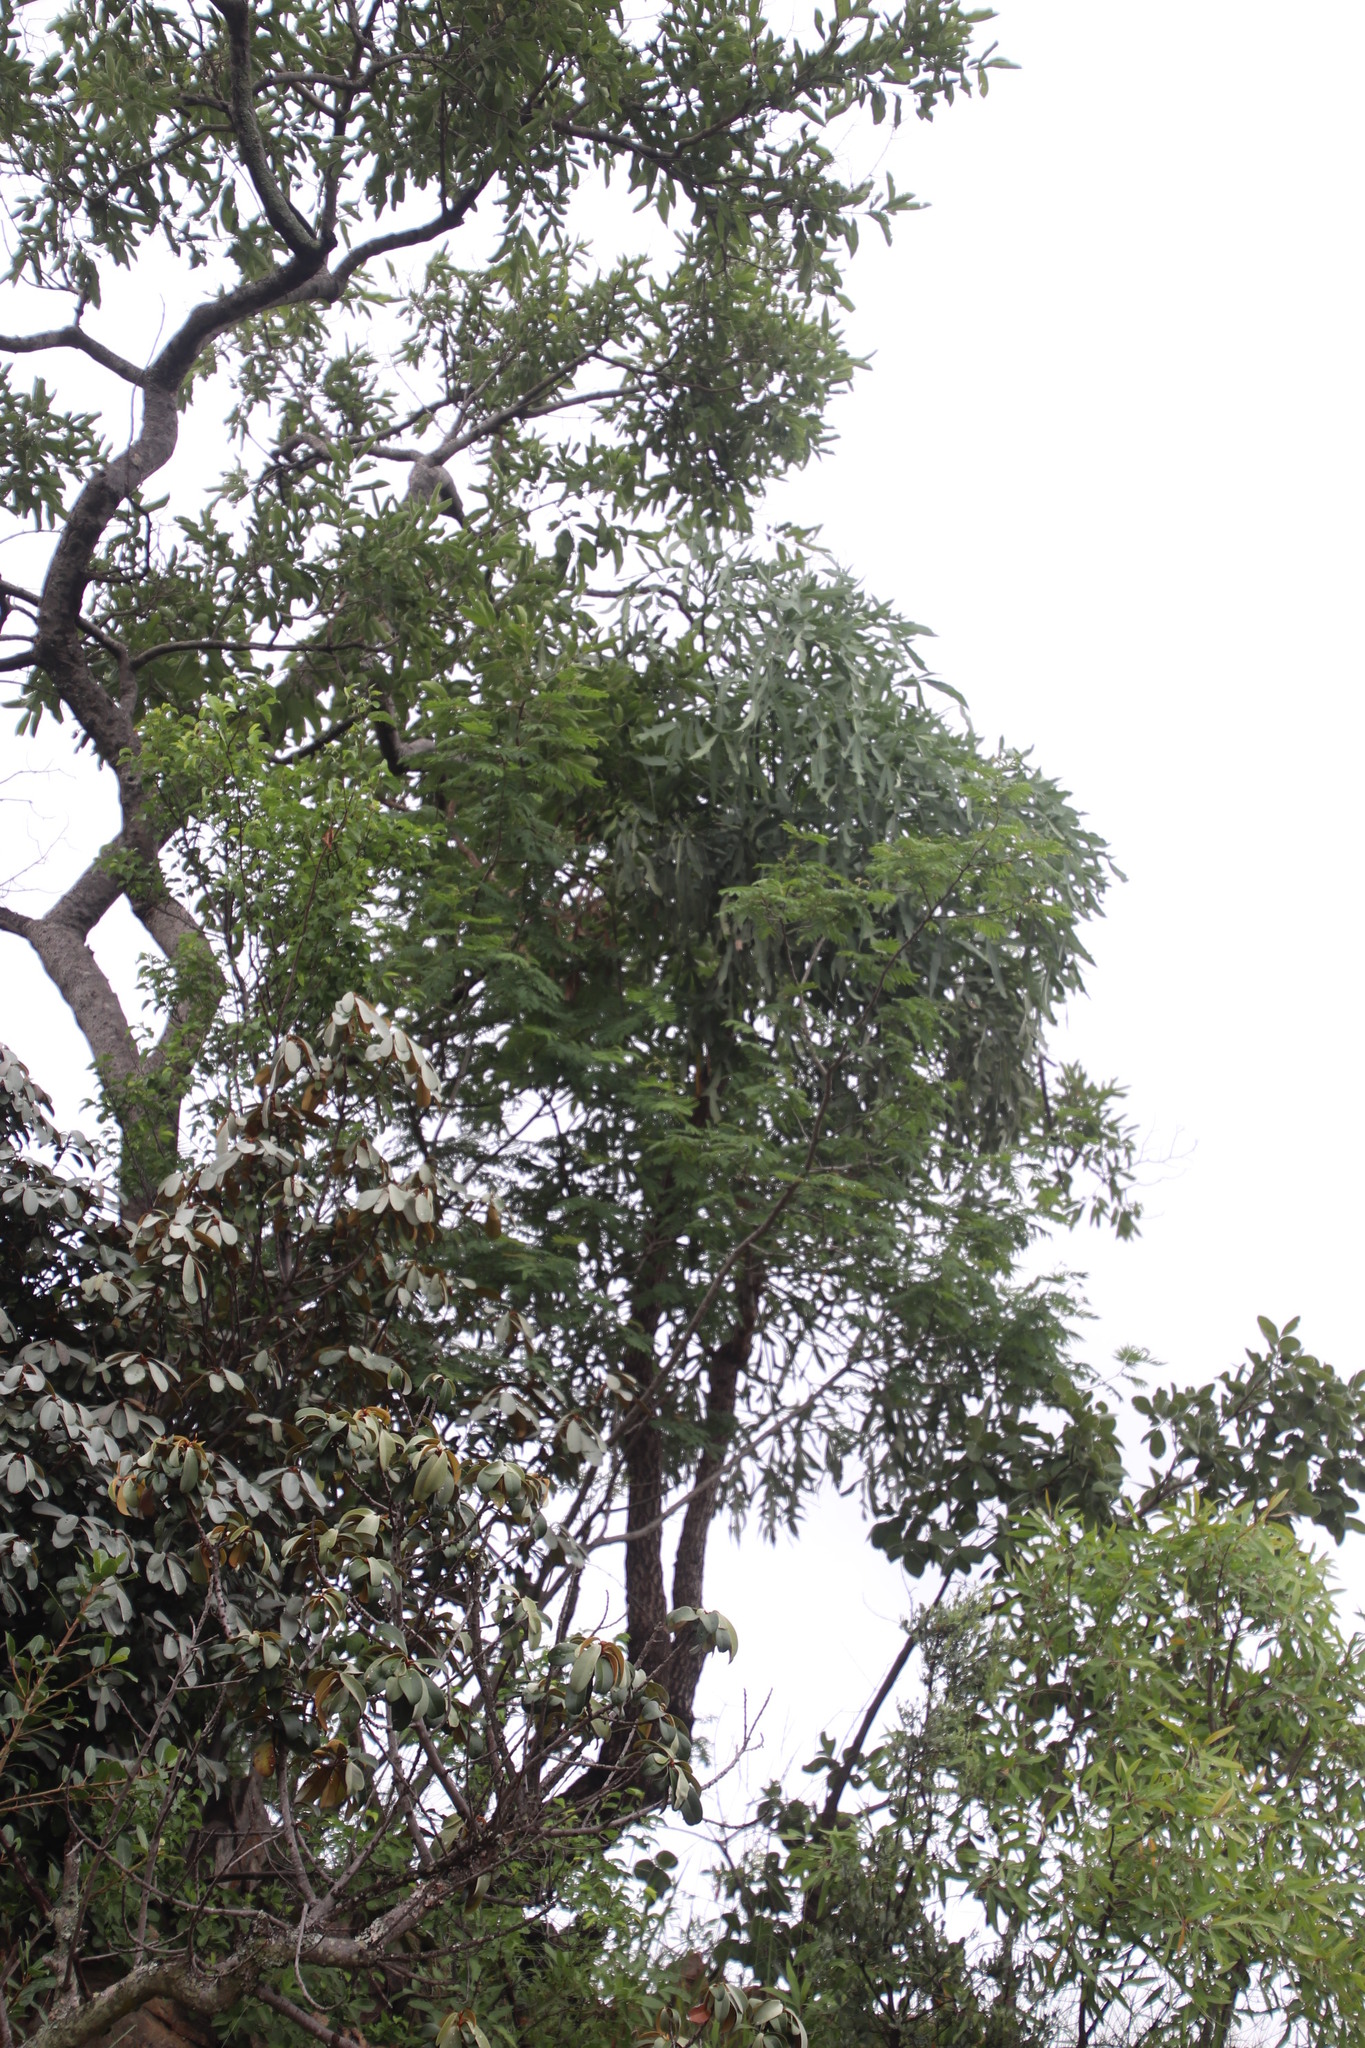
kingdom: Plantae
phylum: Tracheophyta
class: Magnoliopsida
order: Apiales
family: Araliaceae
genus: Cussonia
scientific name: Cussonia paniculata
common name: Cabbagetree
